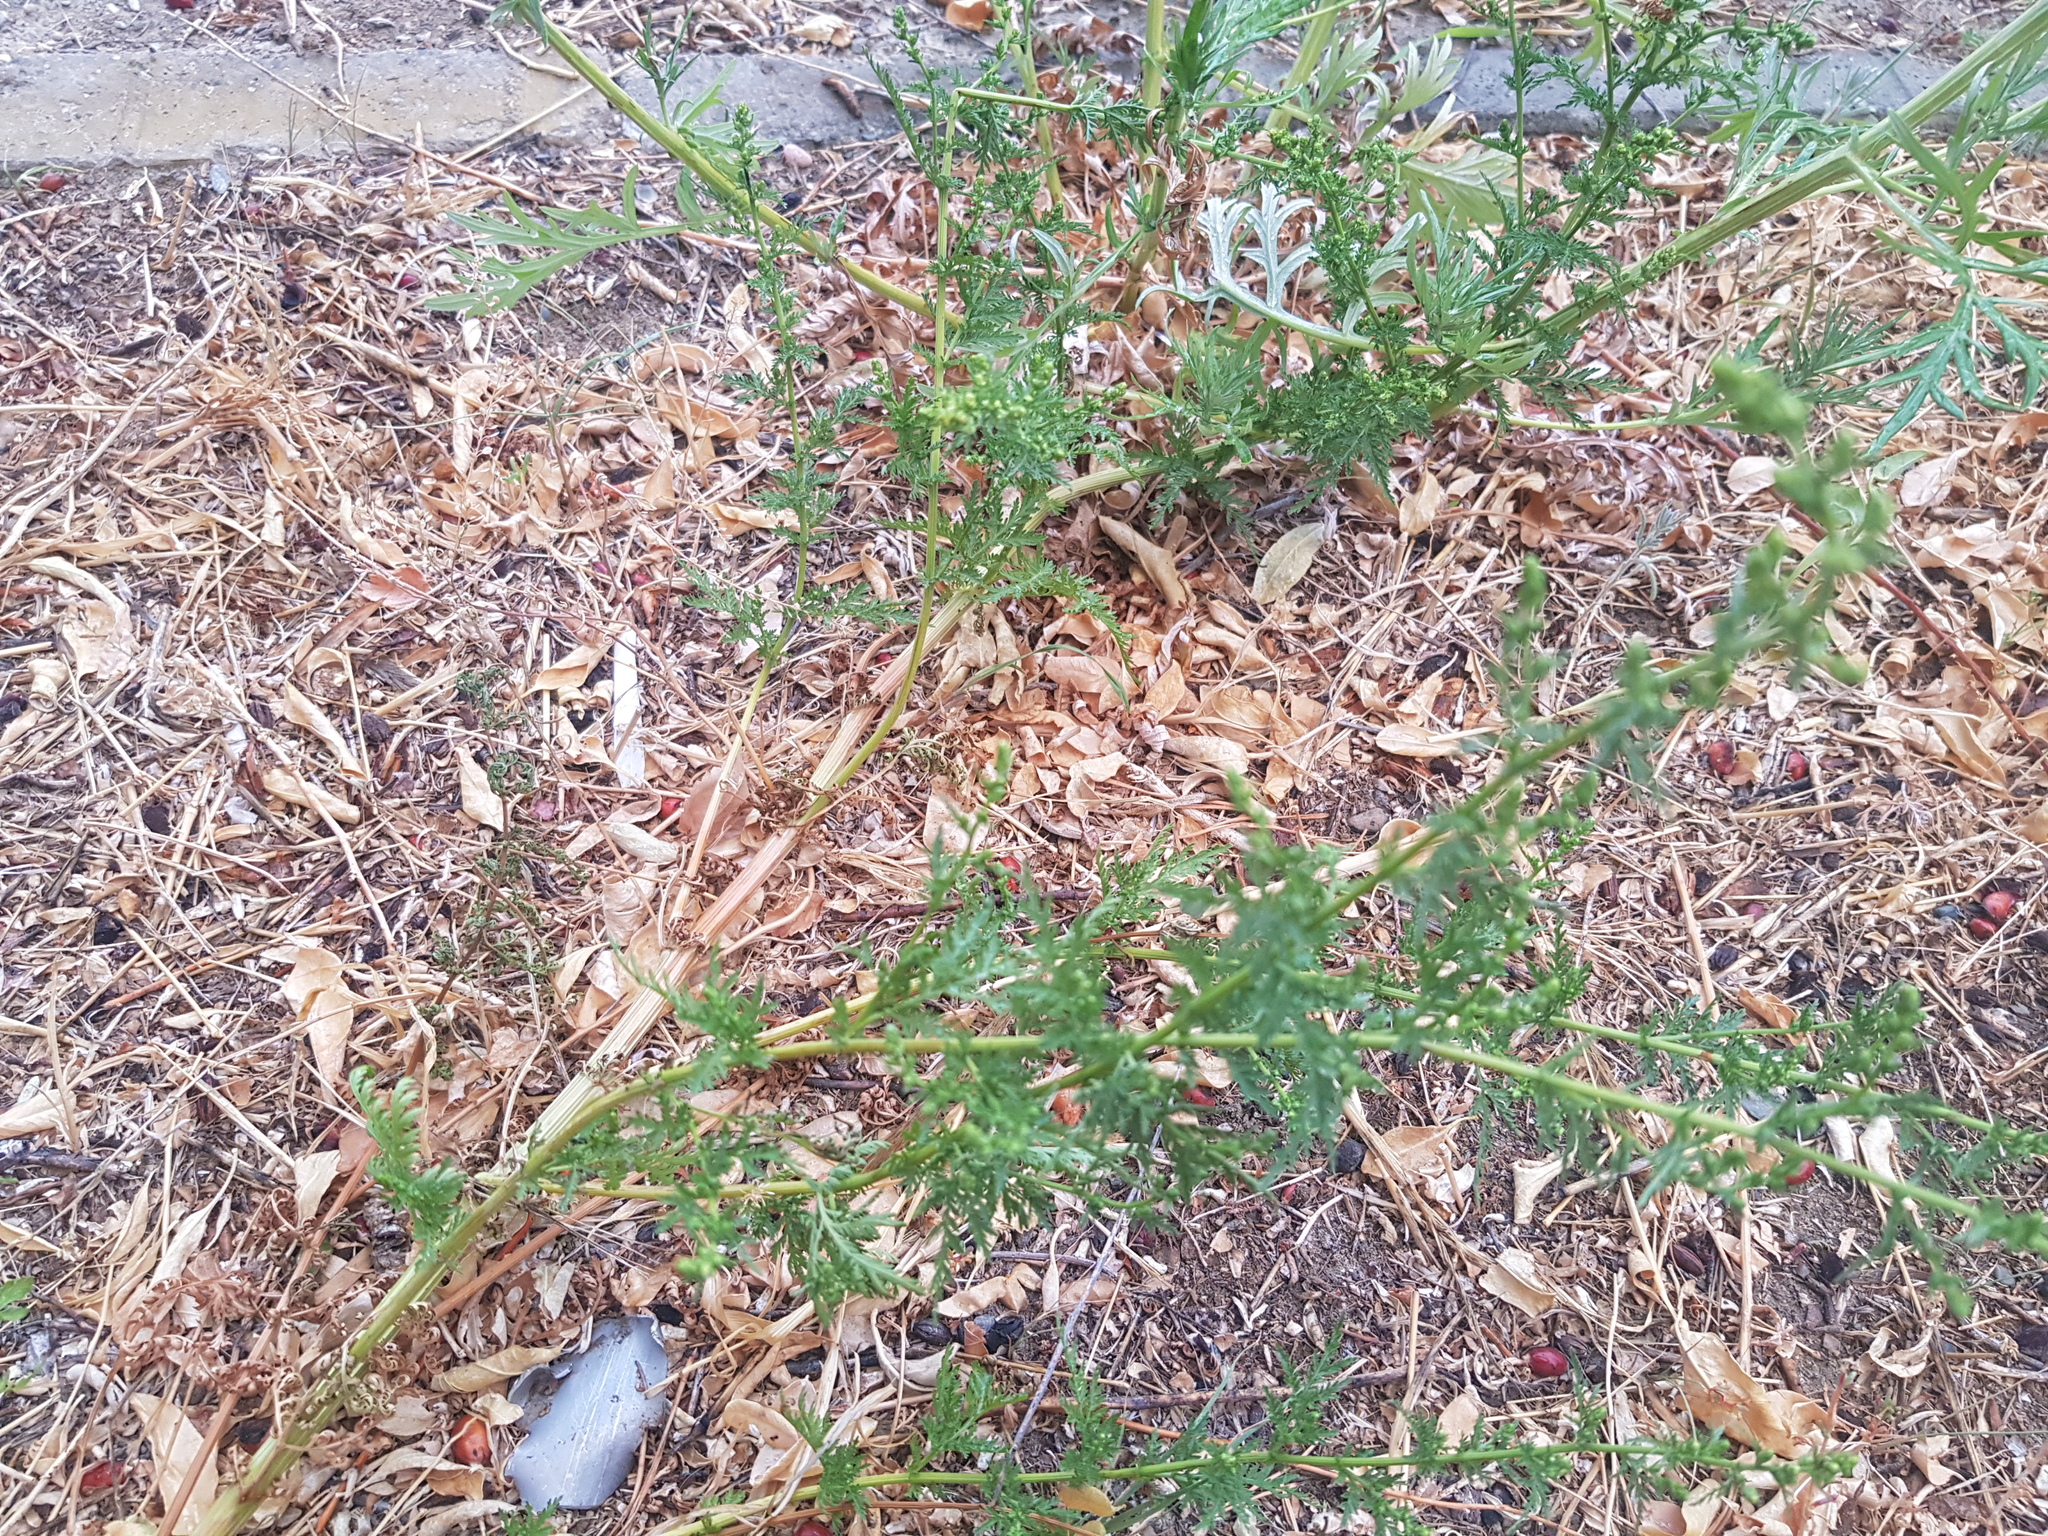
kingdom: Plantae
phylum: Tracheophyta
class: Magnoliopsida
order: Asterales
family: Asteraceae
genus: Artemisia
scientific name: Artemisia sieversiana
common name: Sieversian wormwood
